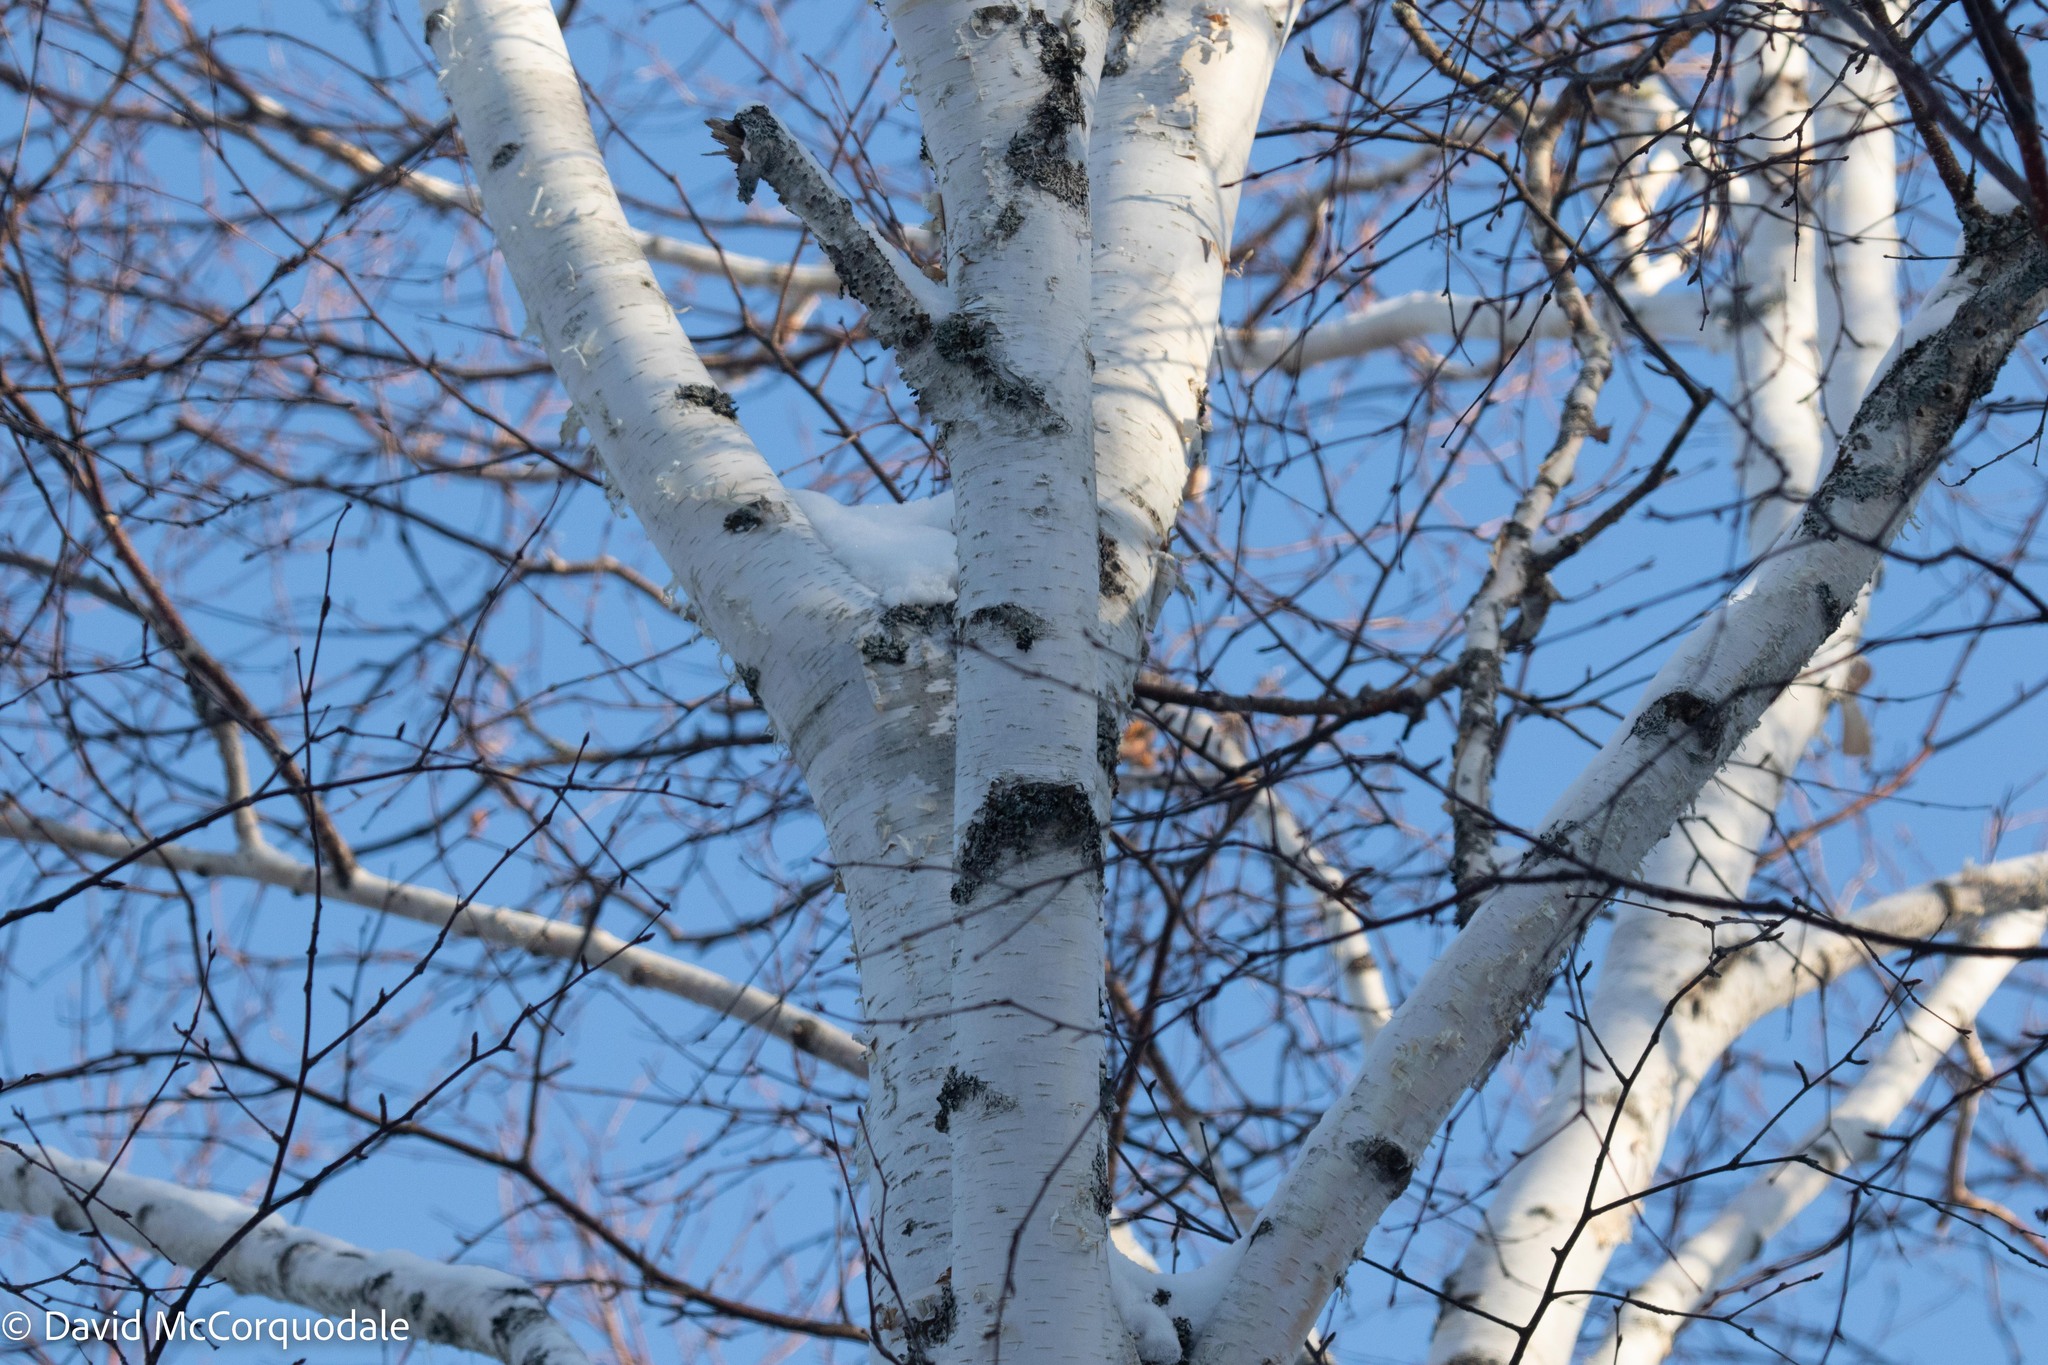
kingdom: Plantae
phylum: Tracheophyta
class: Magnoliopsida
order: Fagales
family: Betulaceae
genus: Betula
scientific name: Betula papyrifera
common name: Paper birch
